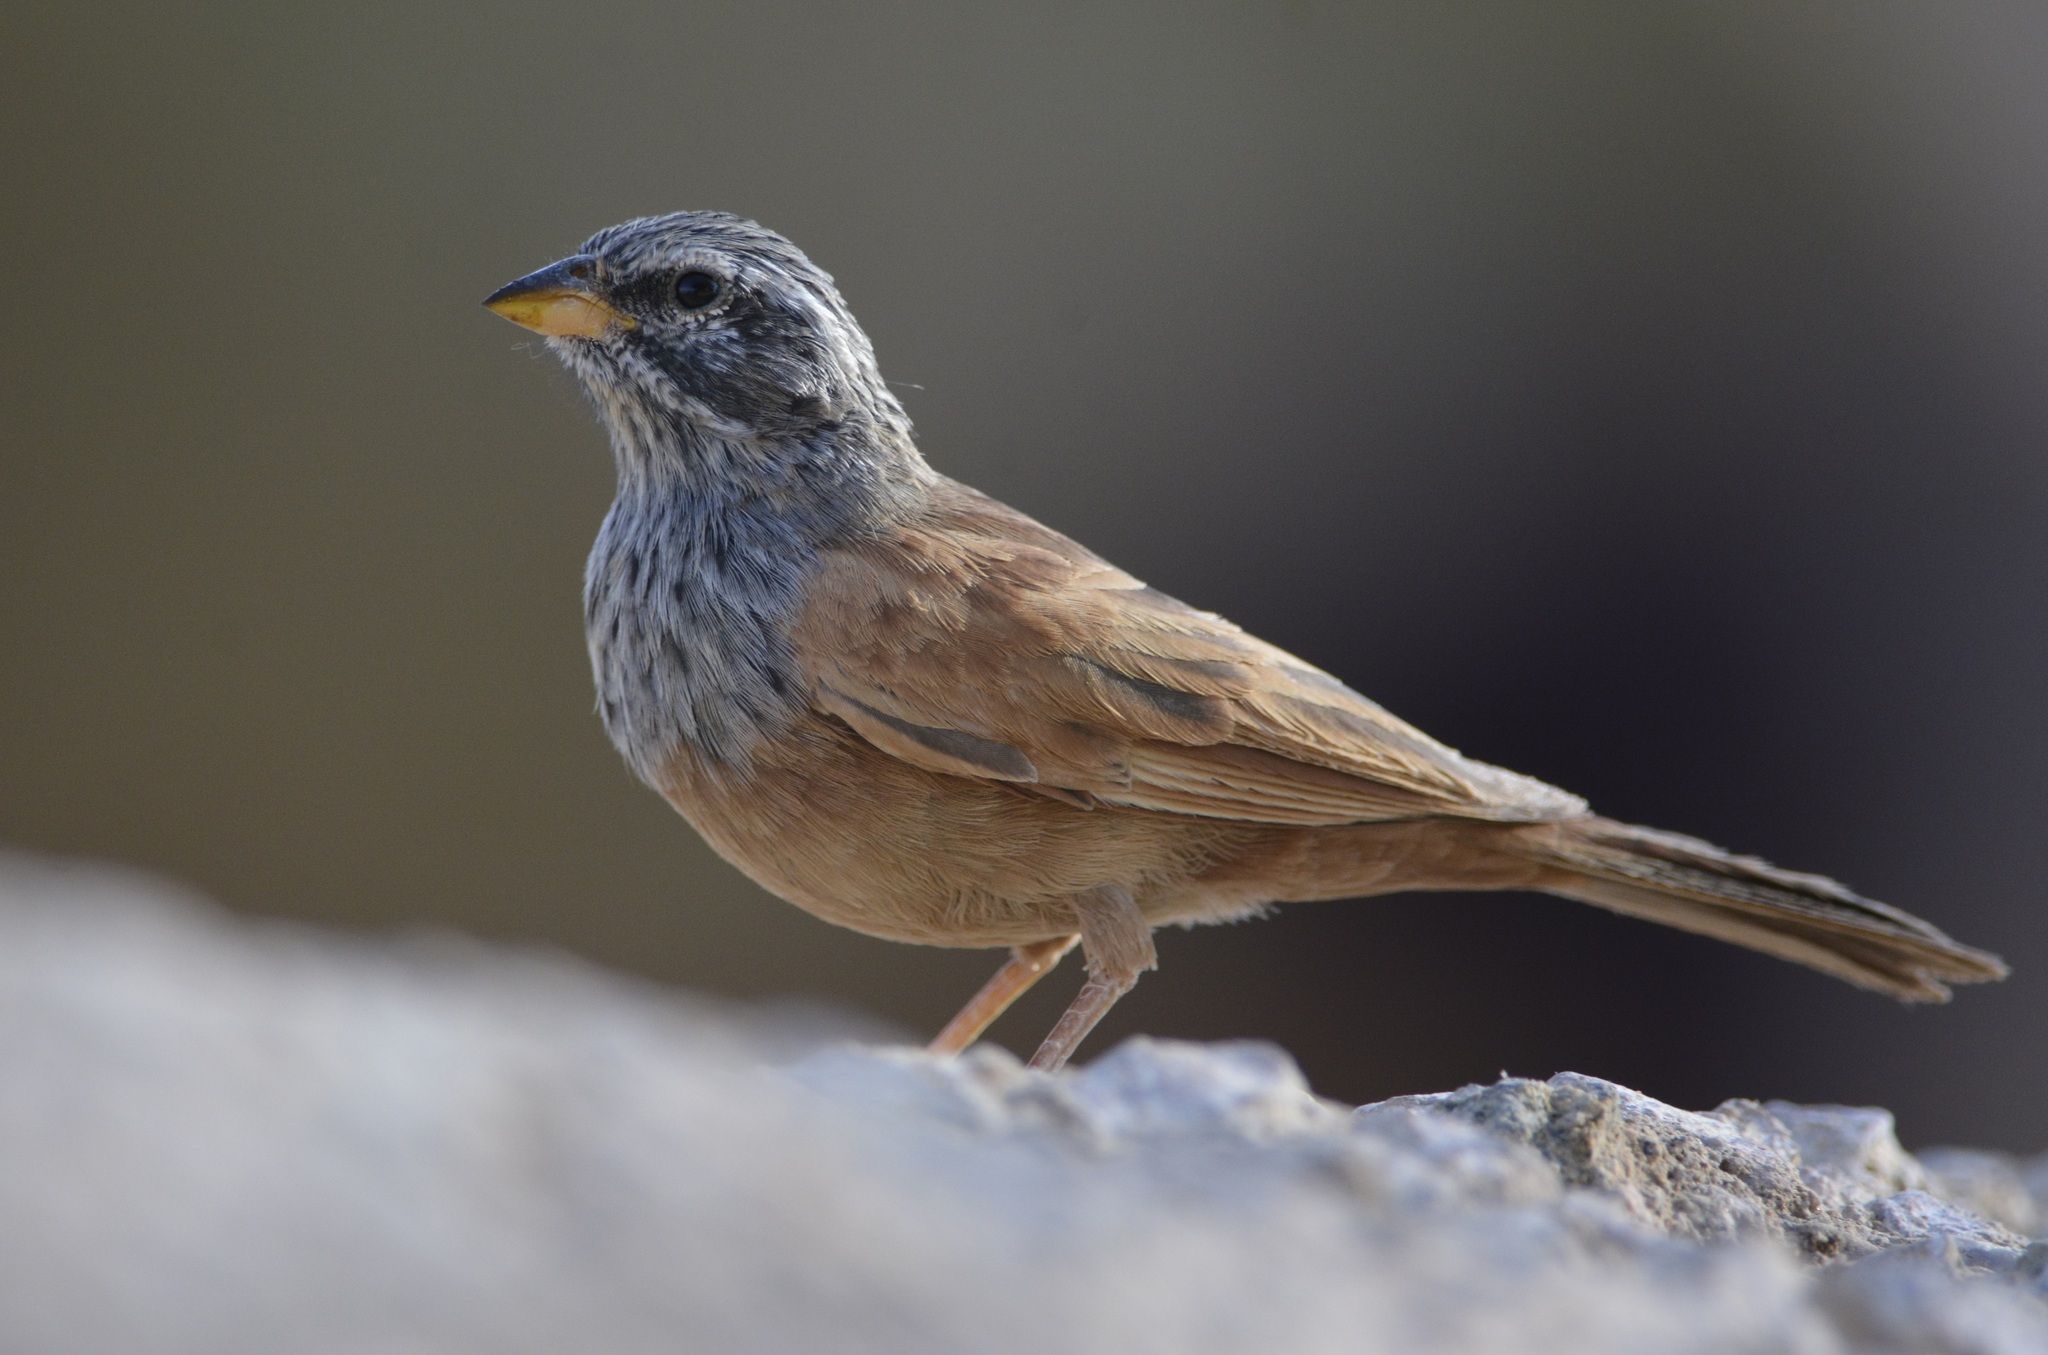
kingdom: Animalia
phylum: Chordata
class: Aves
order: Passeriformes
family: Emberizidae
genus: Emberiza
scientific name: Emberiza sahari
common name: House bunting
